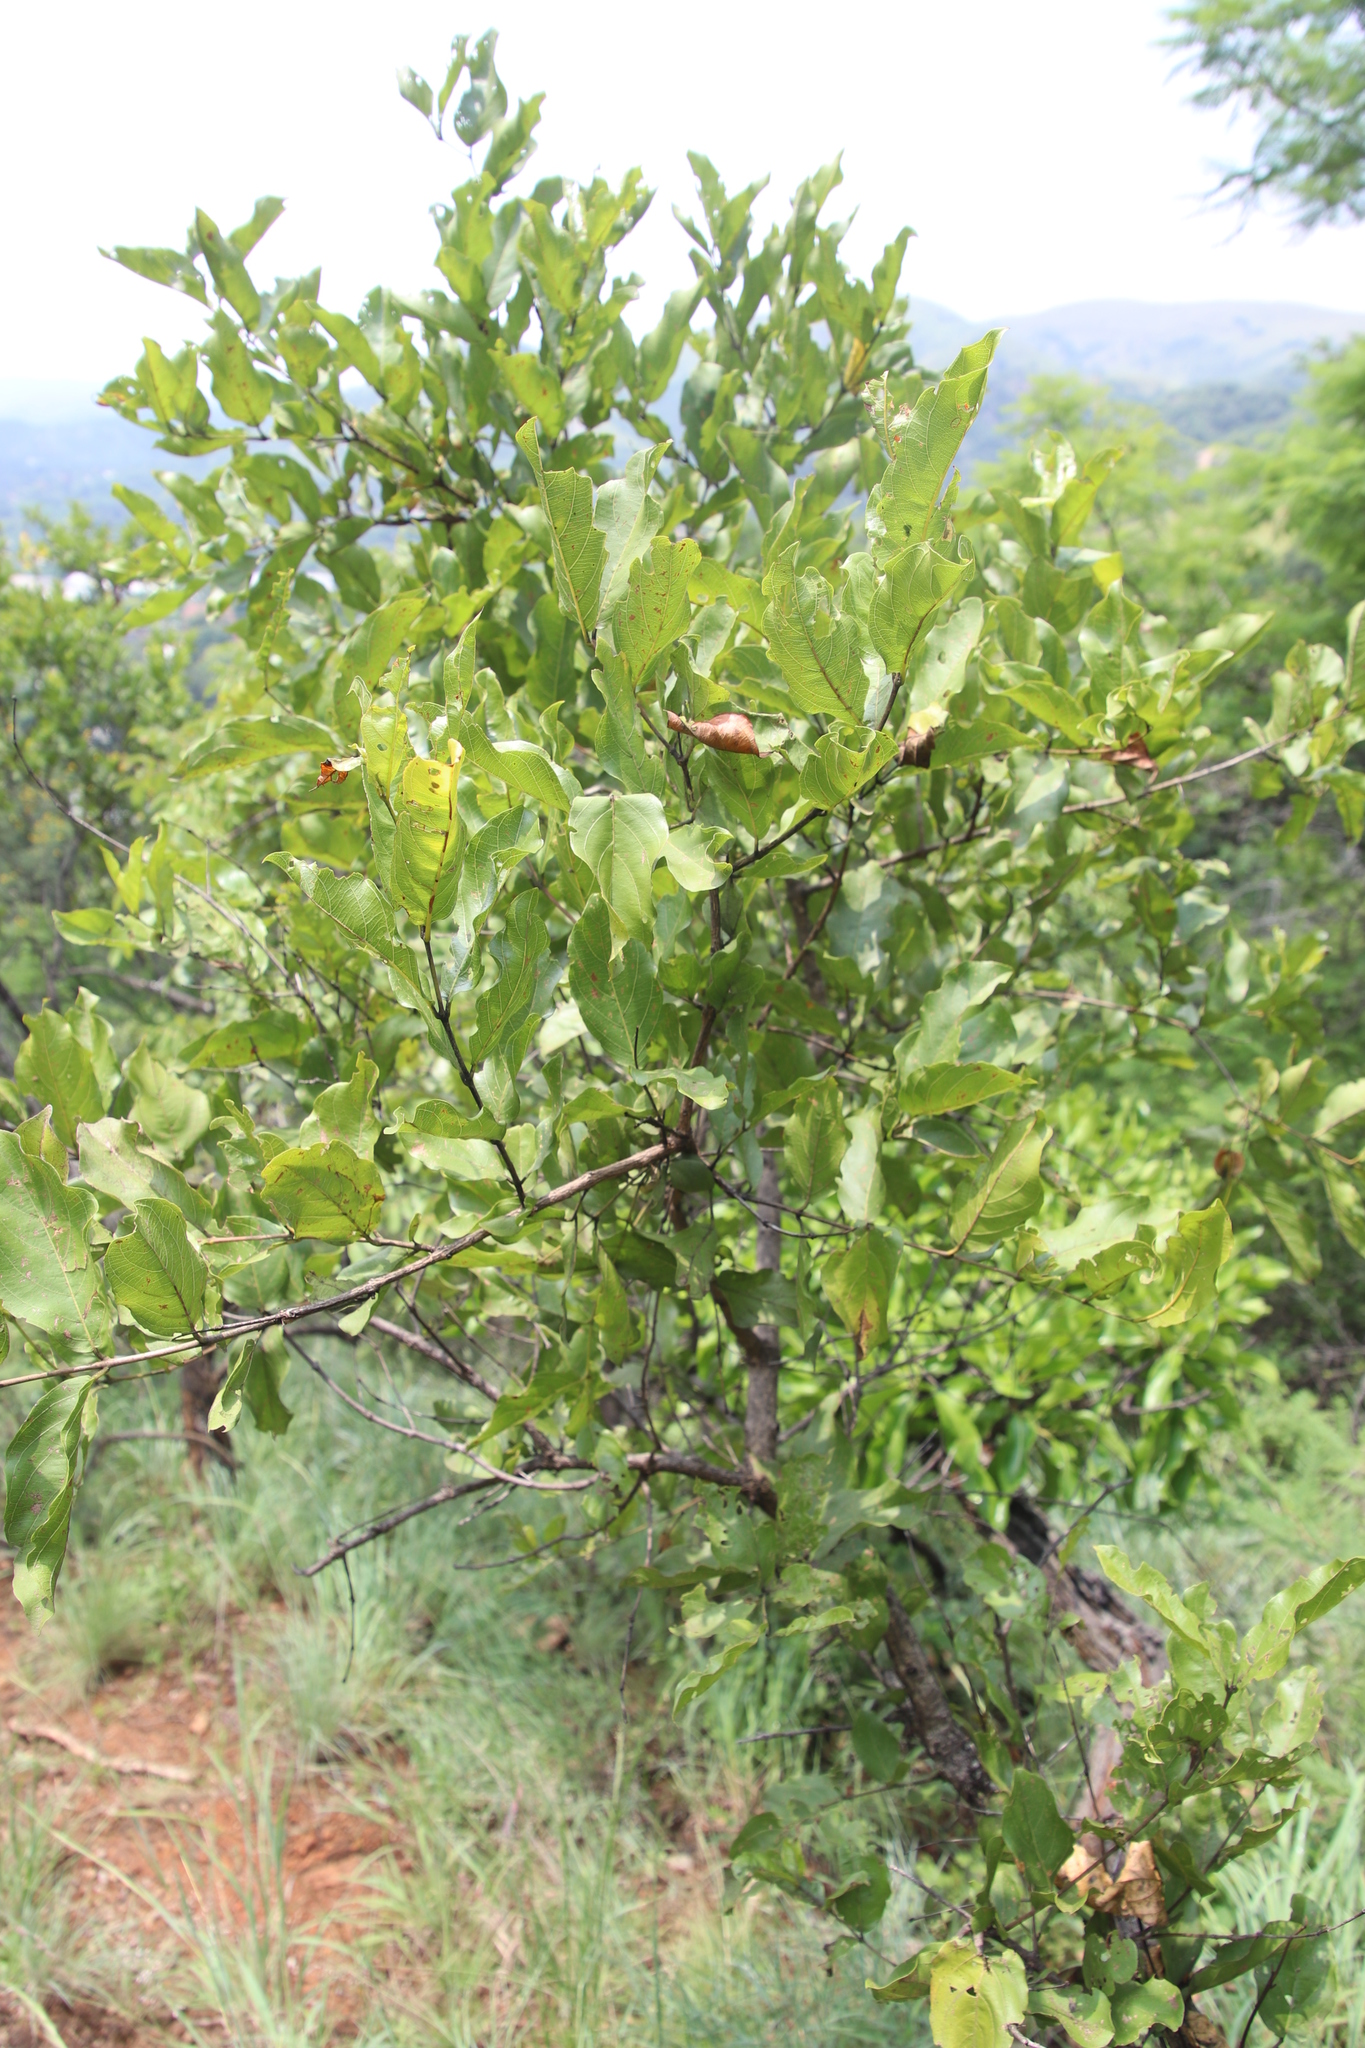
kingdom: Plantae
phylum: Tracheophyta
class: Magnoliopsida
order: Myrtales
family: Combretaceae
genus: Combretum
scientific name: Combretum apiculatum
